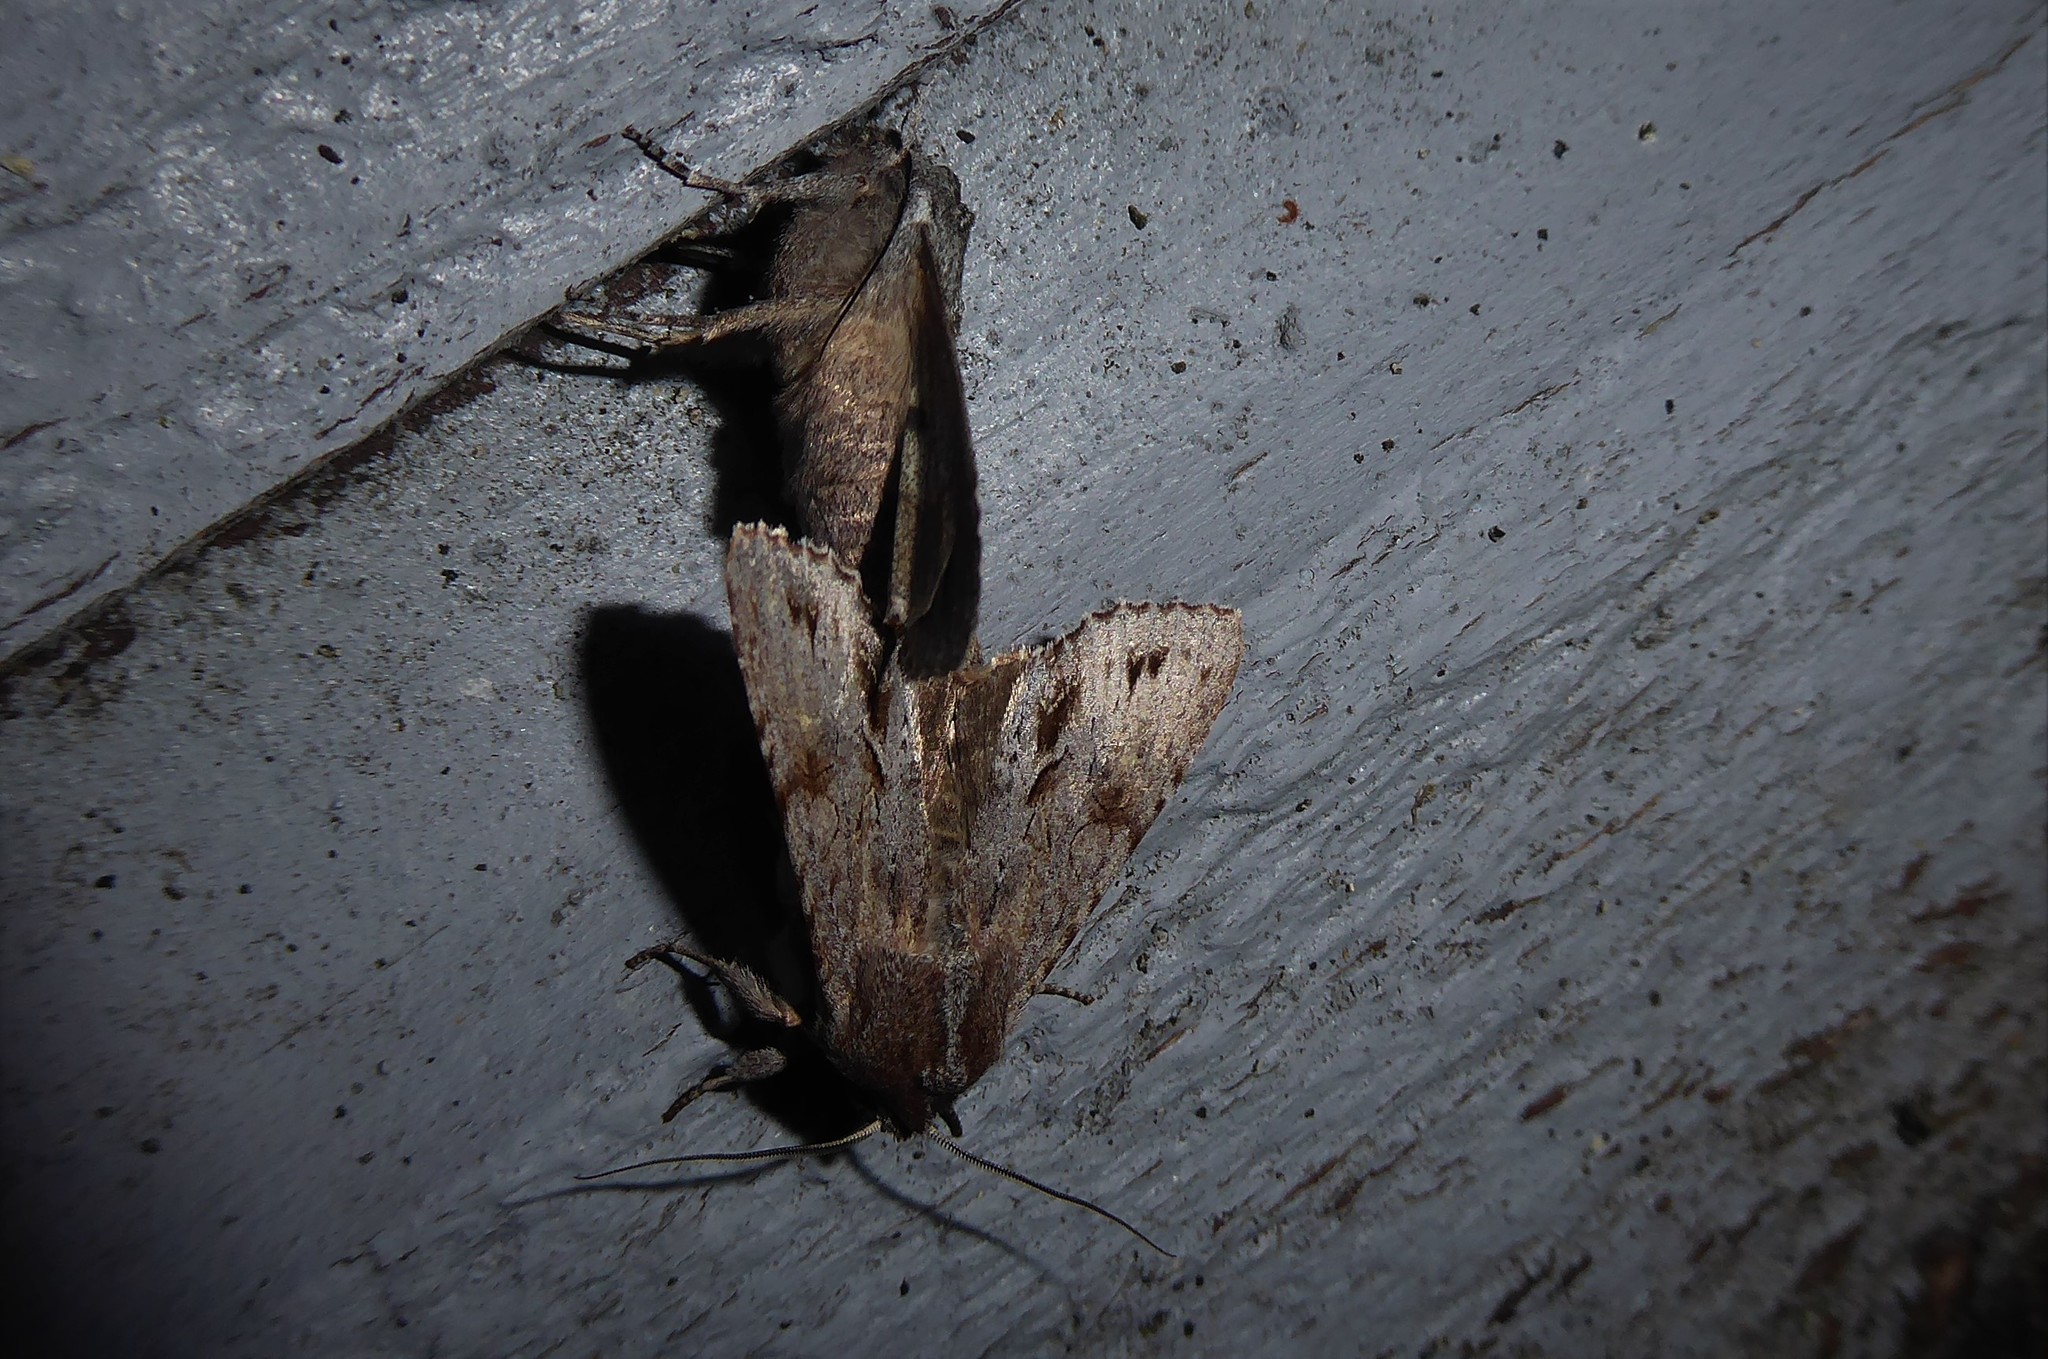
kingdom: Animalia
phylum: Arthropoda
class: Insecta
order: Lepidoptera
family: Noctuidae
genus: Ichneutica
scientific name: Ichneutica
